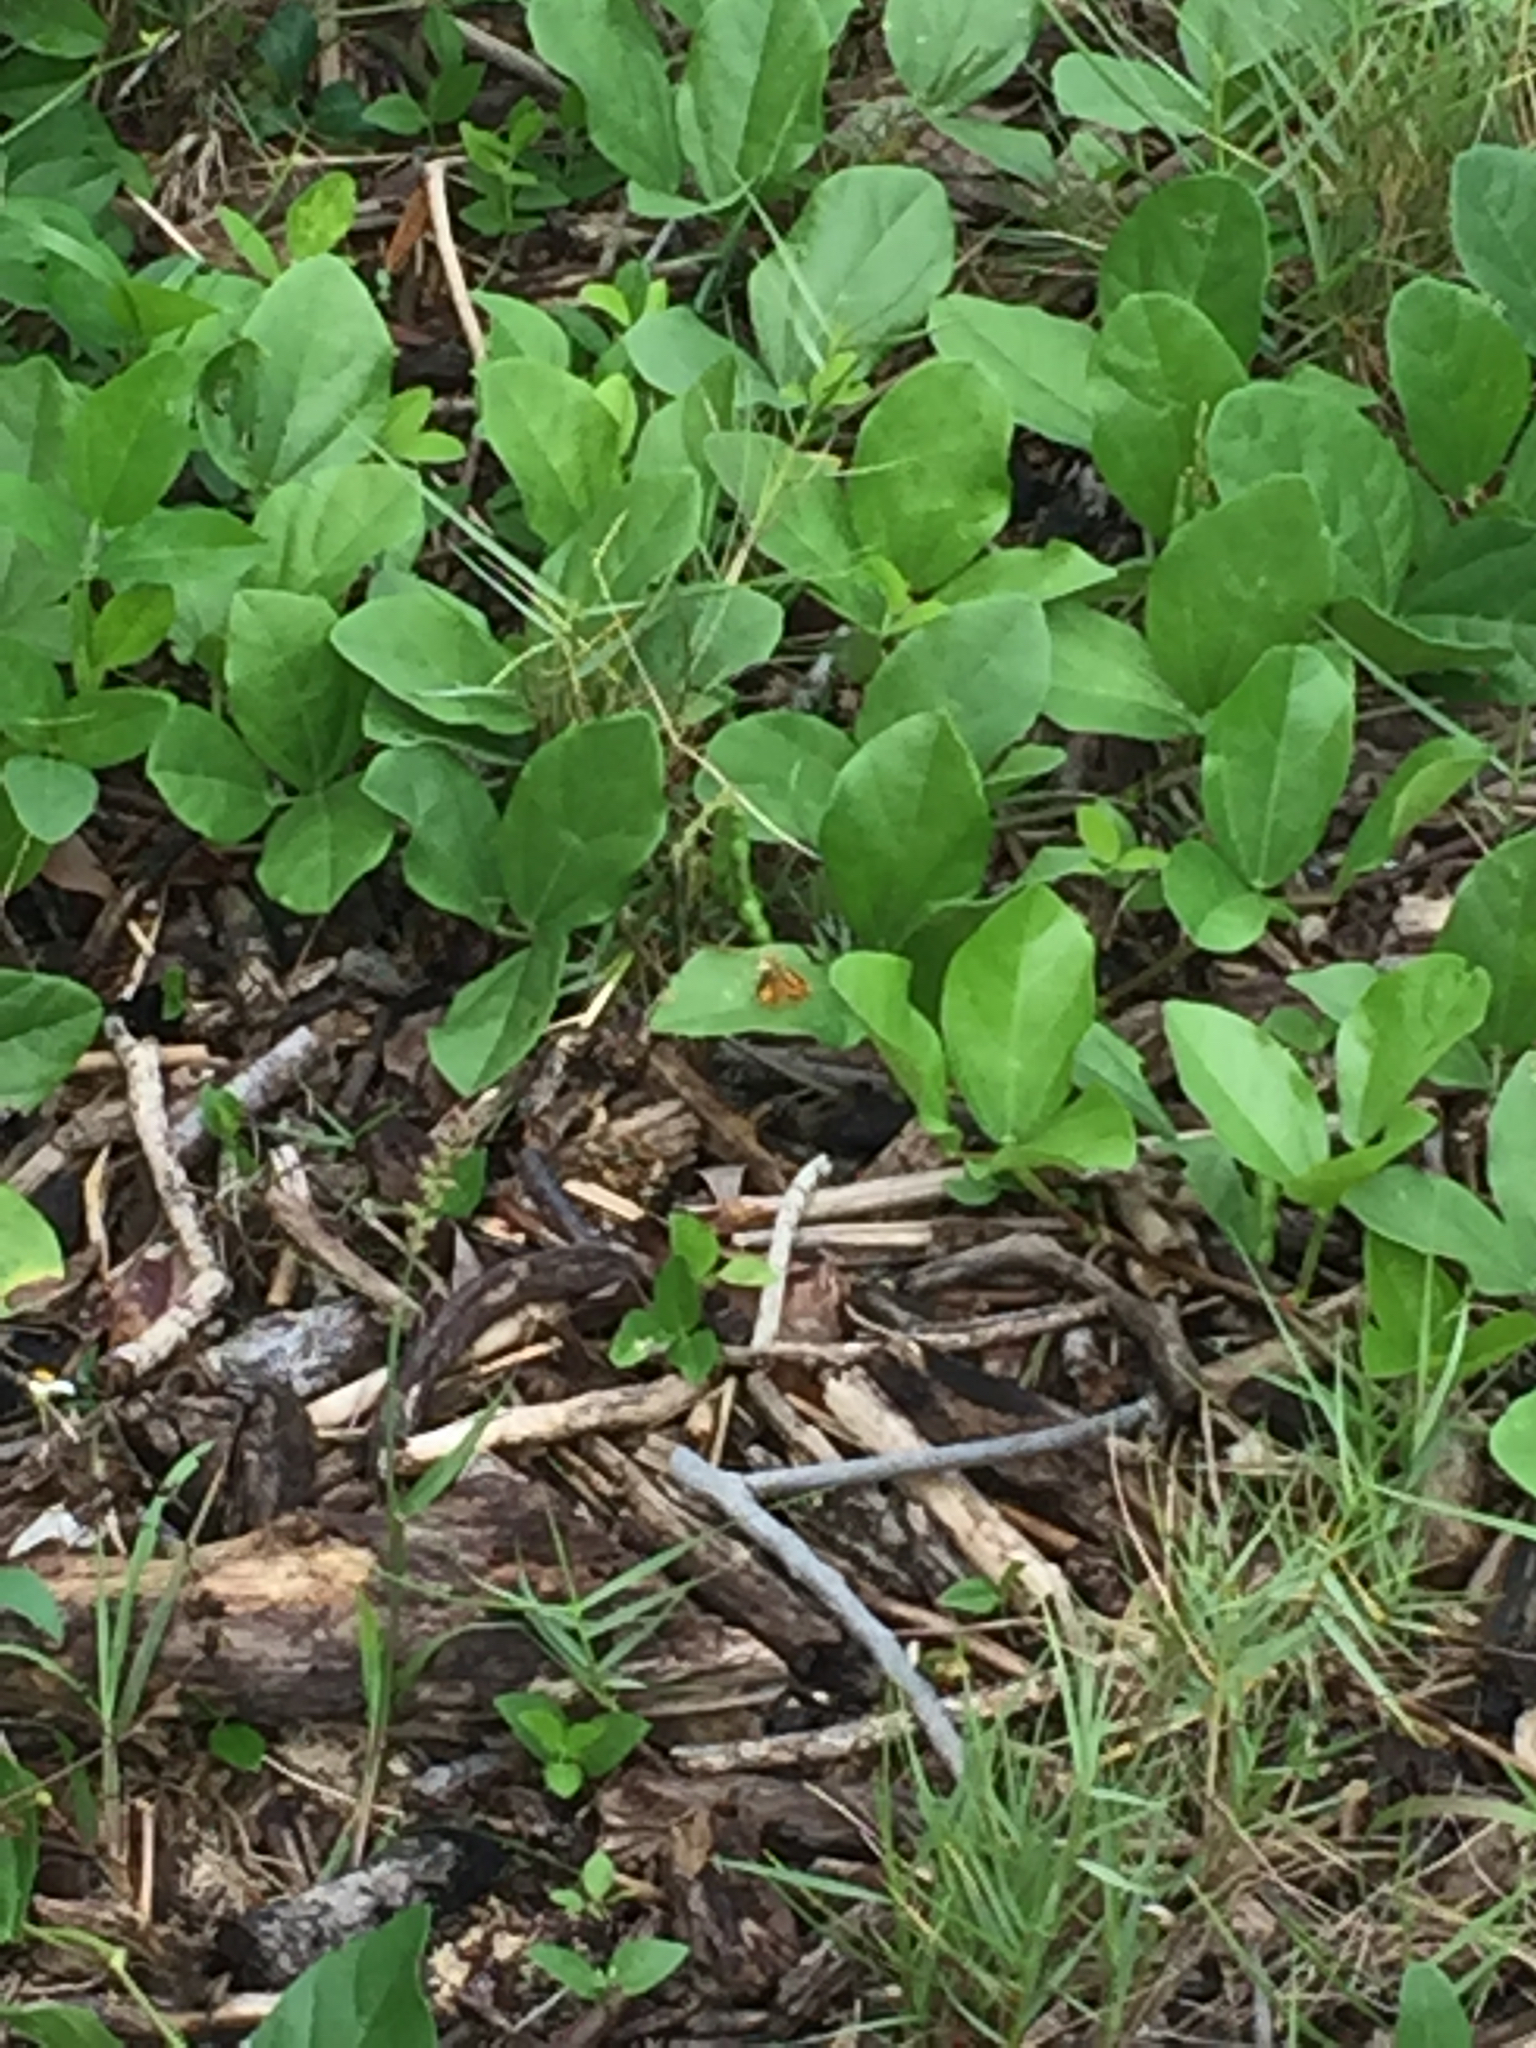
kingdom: Animalia
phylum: Arthropoda
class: Insecta
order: Lepidoptera
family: Hesperiidae
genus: Hylephila
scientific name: Hylephila phyleus
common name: Fiery skipper
